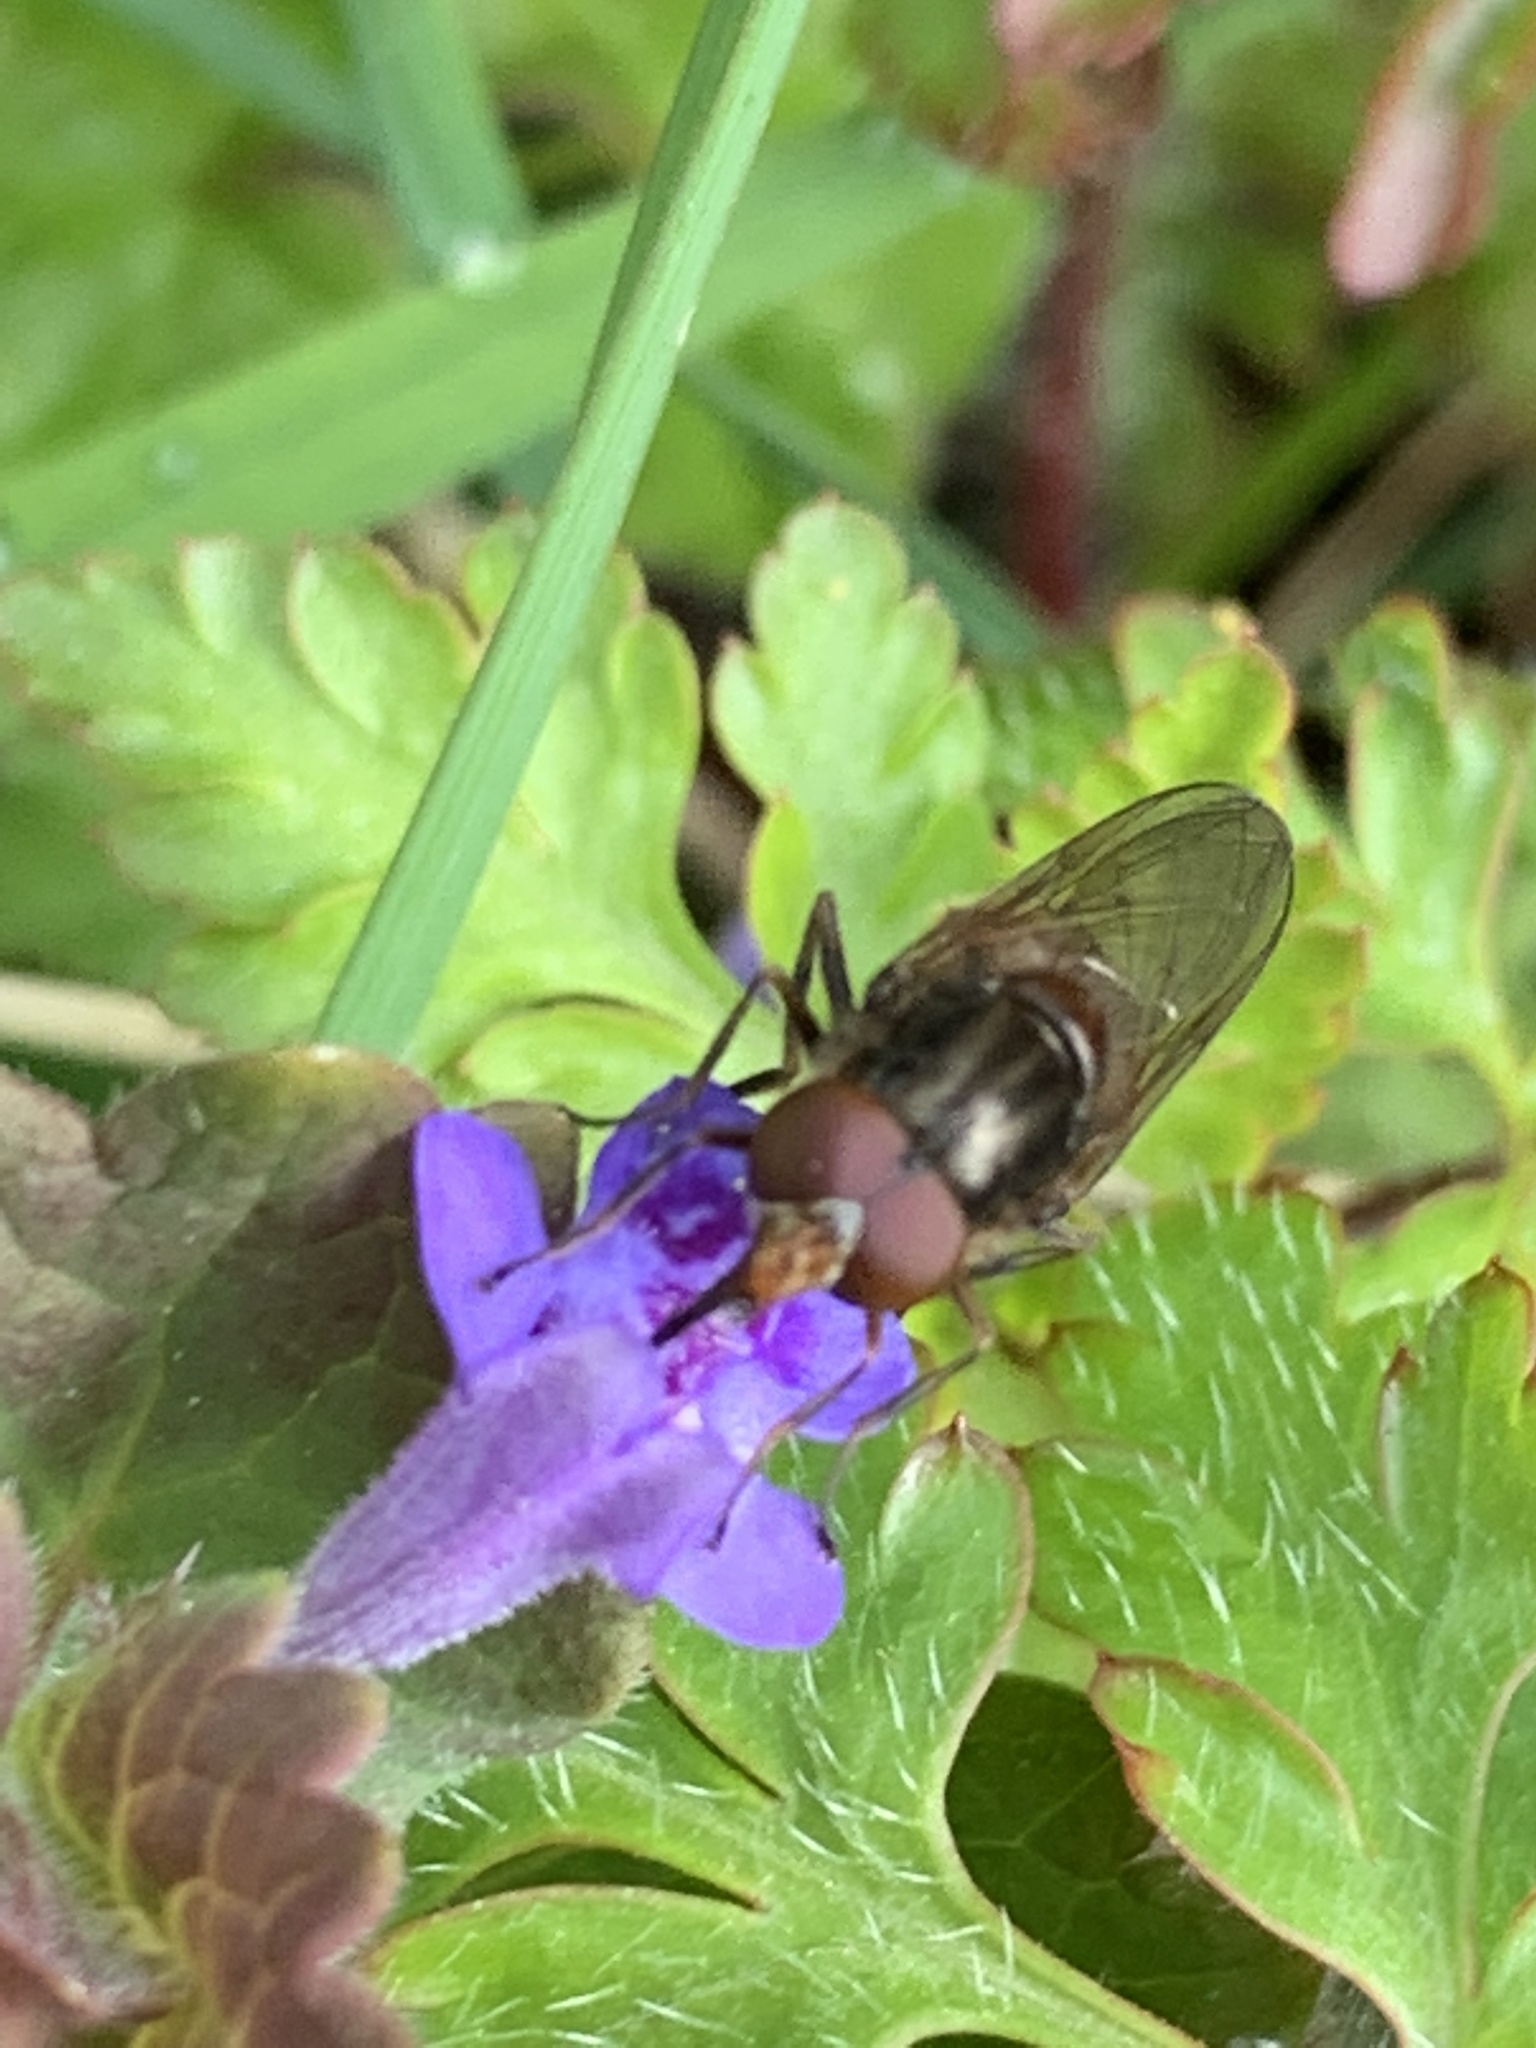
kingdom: Animalia
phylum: Arthropoda
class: Insecta
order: Diptera
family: Syrphidae
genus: Rhingia
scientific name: Rhingia campestris
